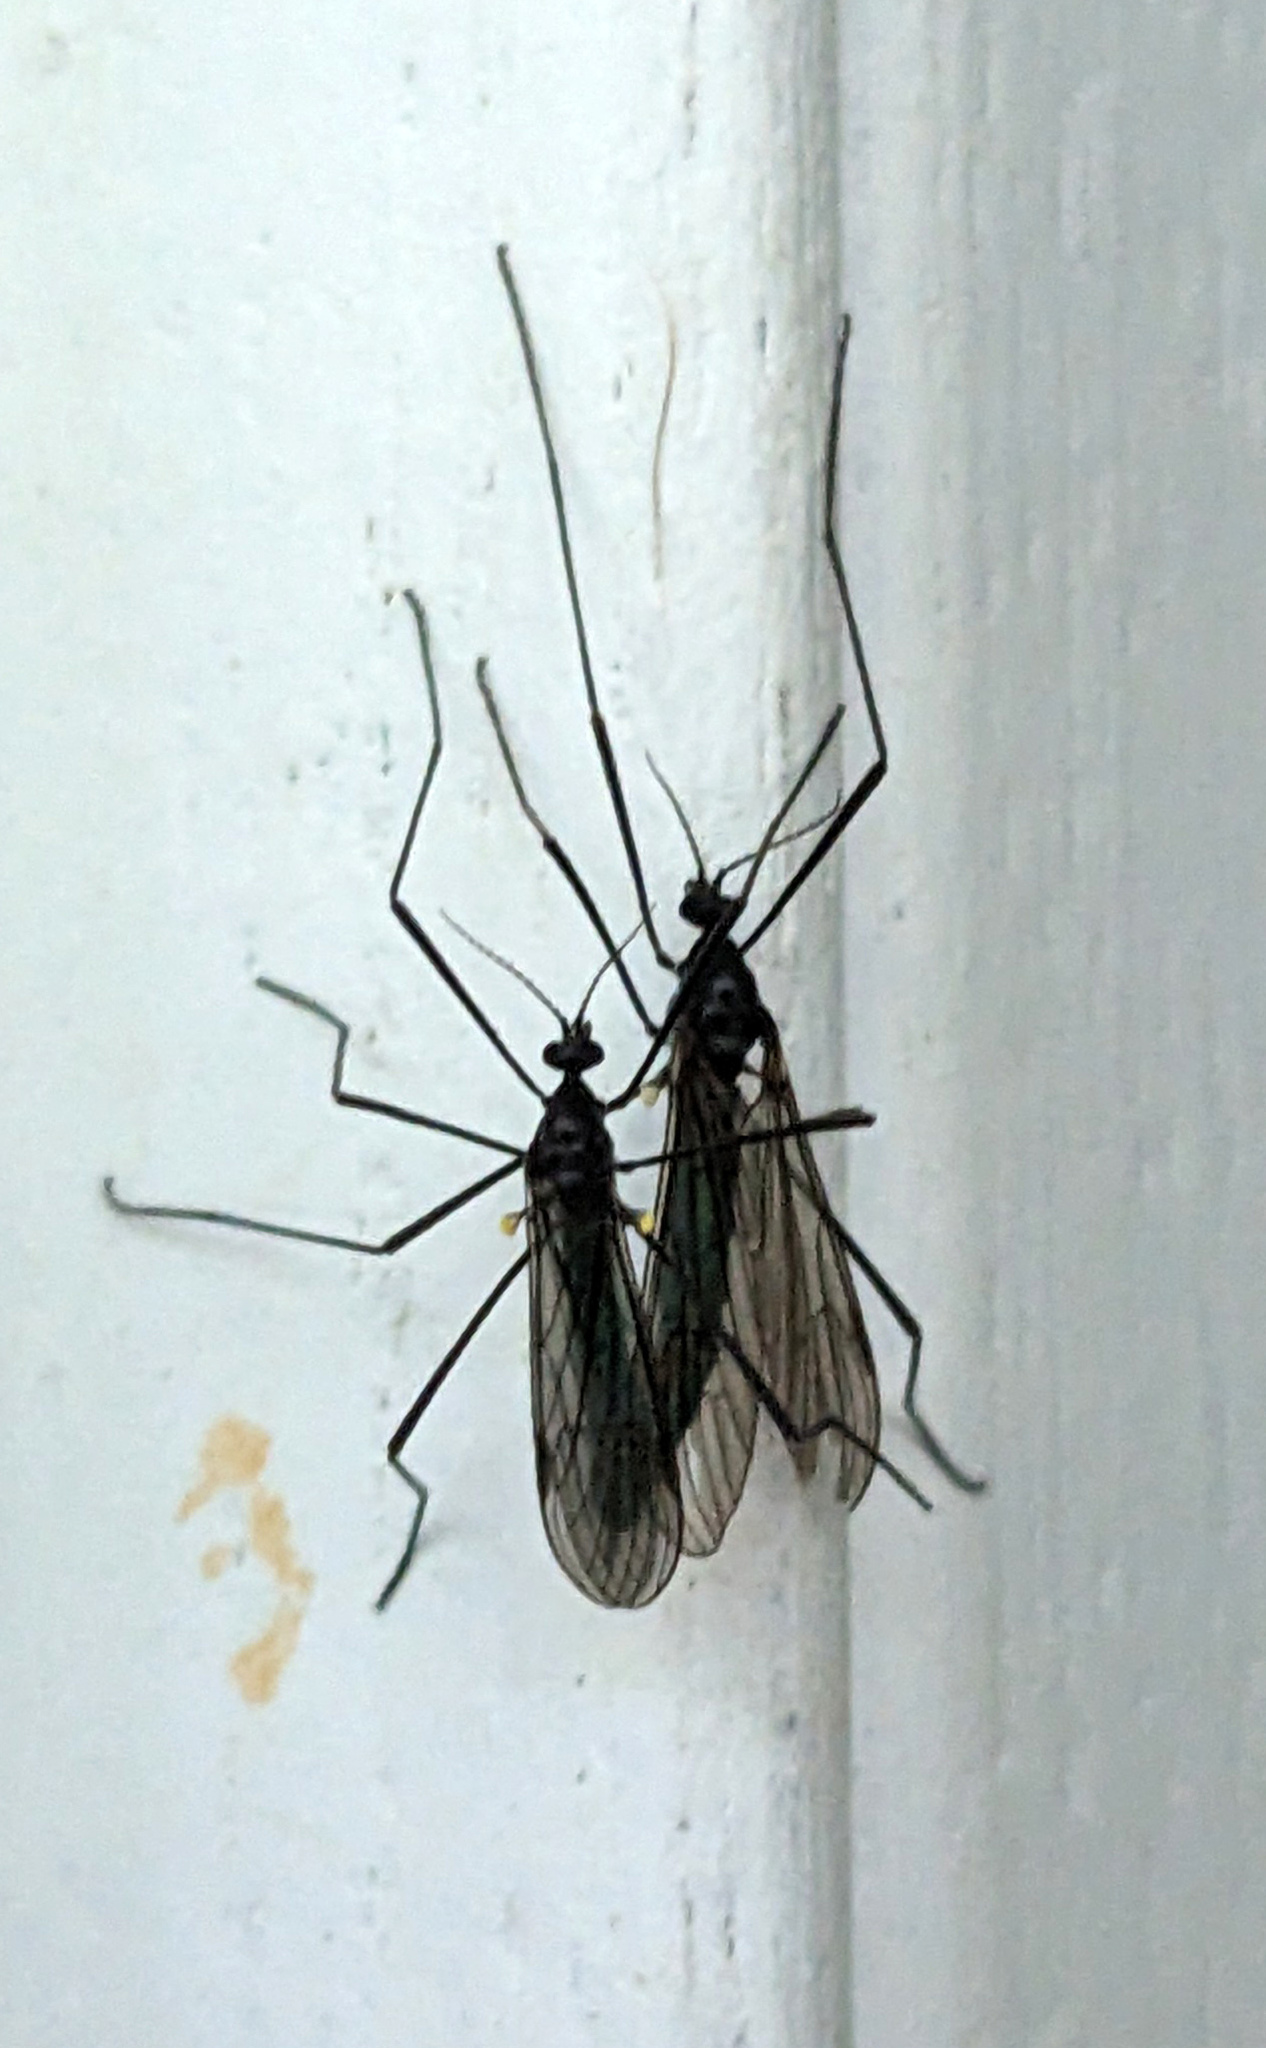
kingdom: Animalia
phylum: Arthropoda
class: Insecta
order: Diptera
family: Limoniidae
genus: Gnophomyia
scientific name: Gnophomyia tristissima
